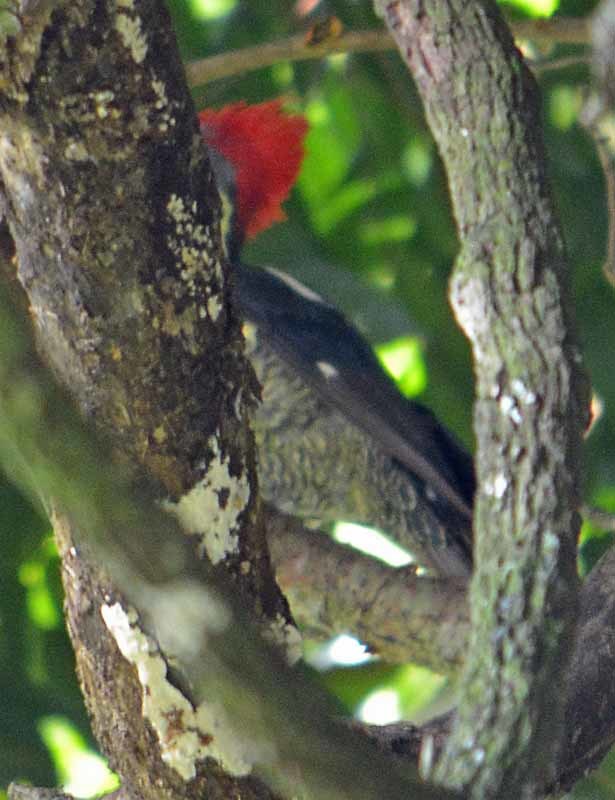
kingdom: Animalia
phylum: Chordata
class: Aves
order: Piciformes
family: Picidae
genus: Dryocopus
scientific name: Dryocopus lineatus
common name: Lineated woodpecker
